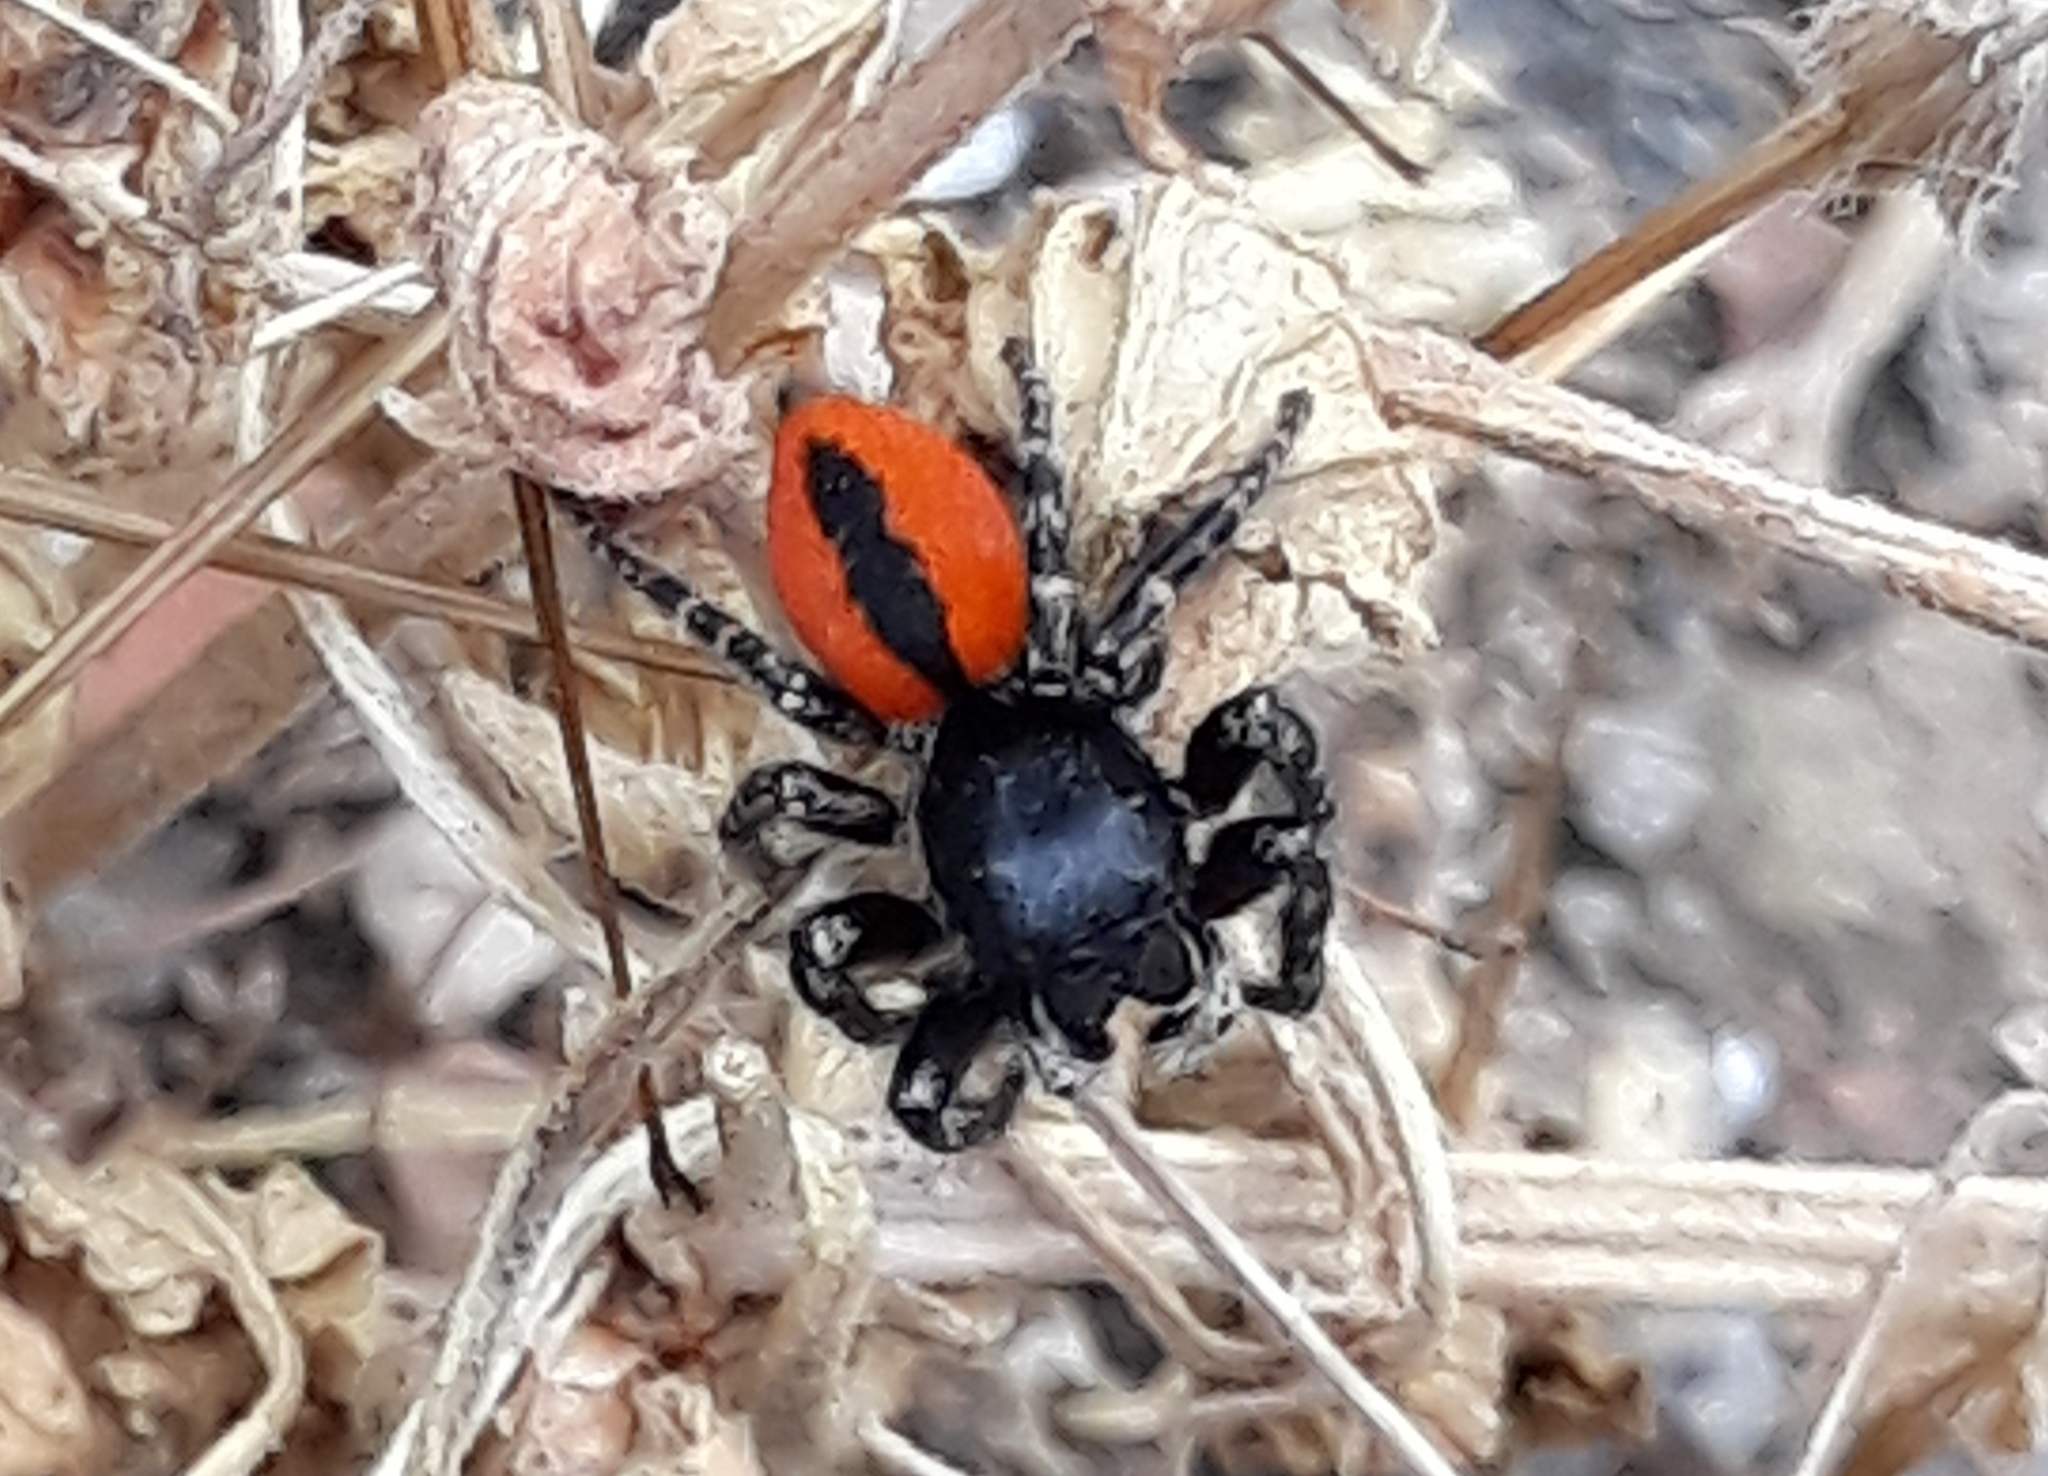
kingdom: Animalia
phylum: Arthropoda
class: Arachnida
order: Araneae
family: Salticidae
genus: Philaeus
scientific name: Philaeus chrysops
